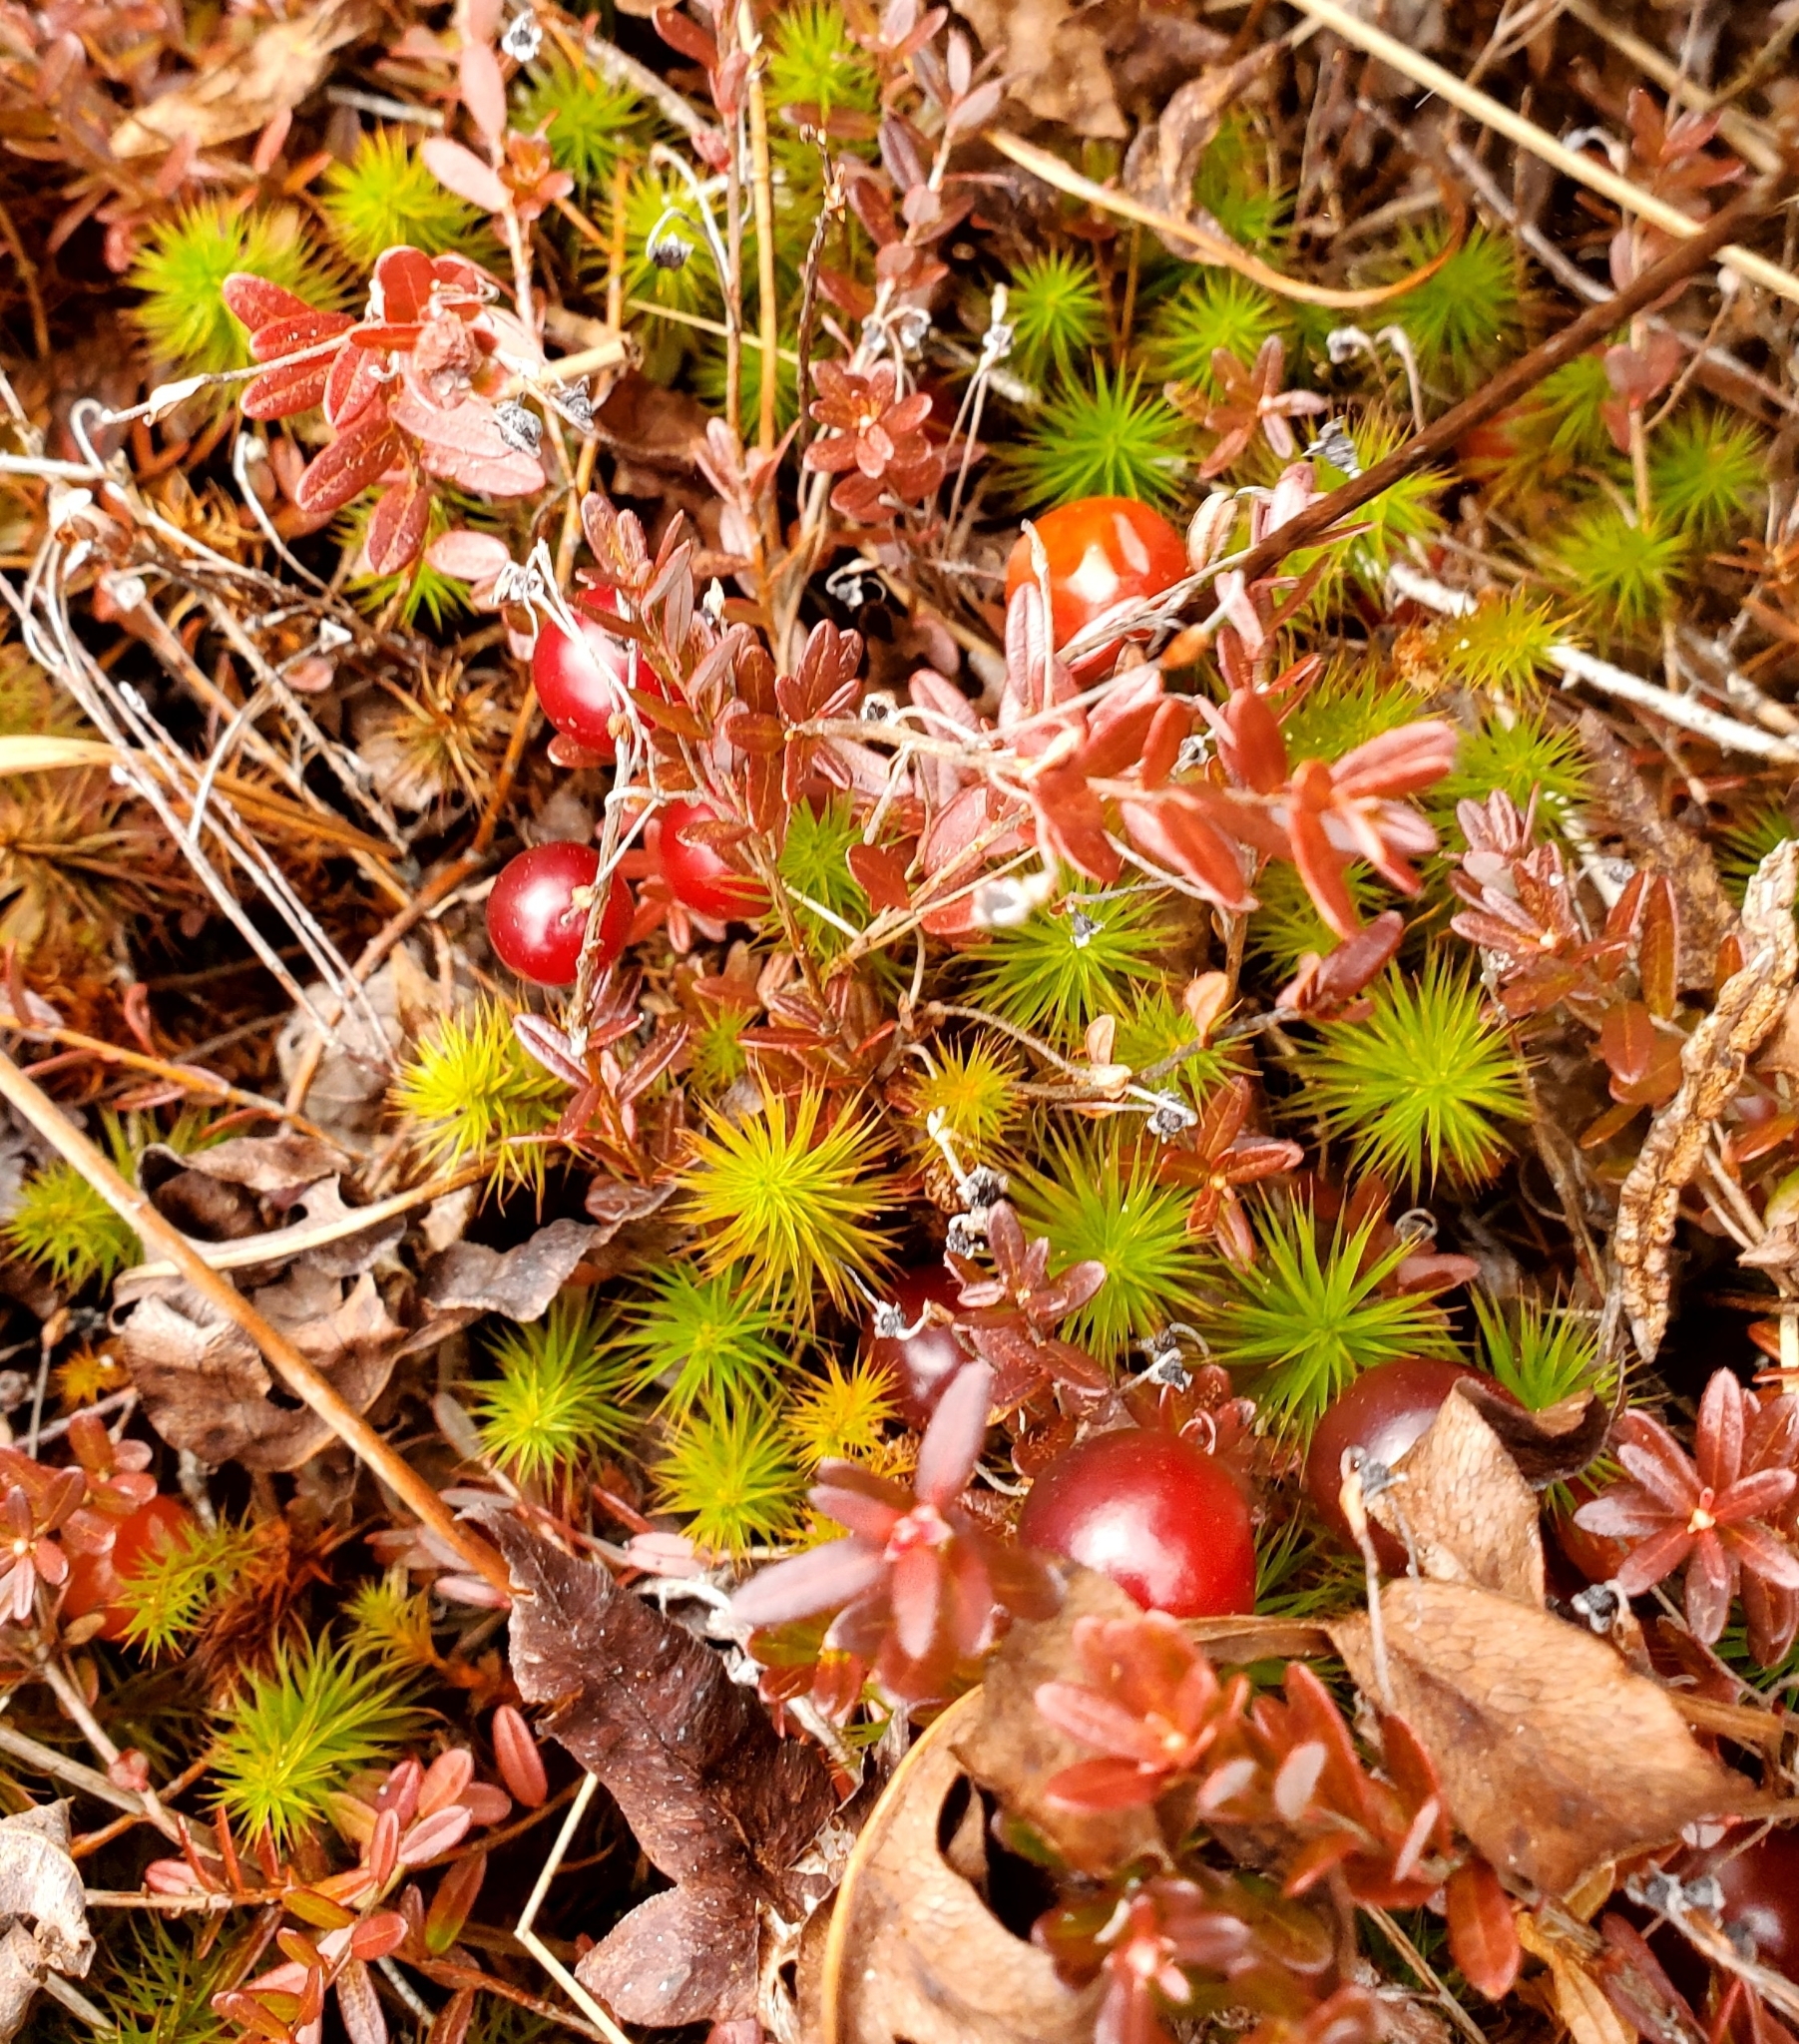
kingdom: Plantae
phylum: Tracheophyta
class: Magnoliopsida
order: Ericales
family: Ericaceae
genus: Vaccinium
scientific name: Vaccinium macrocarpon
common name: American cranberry
